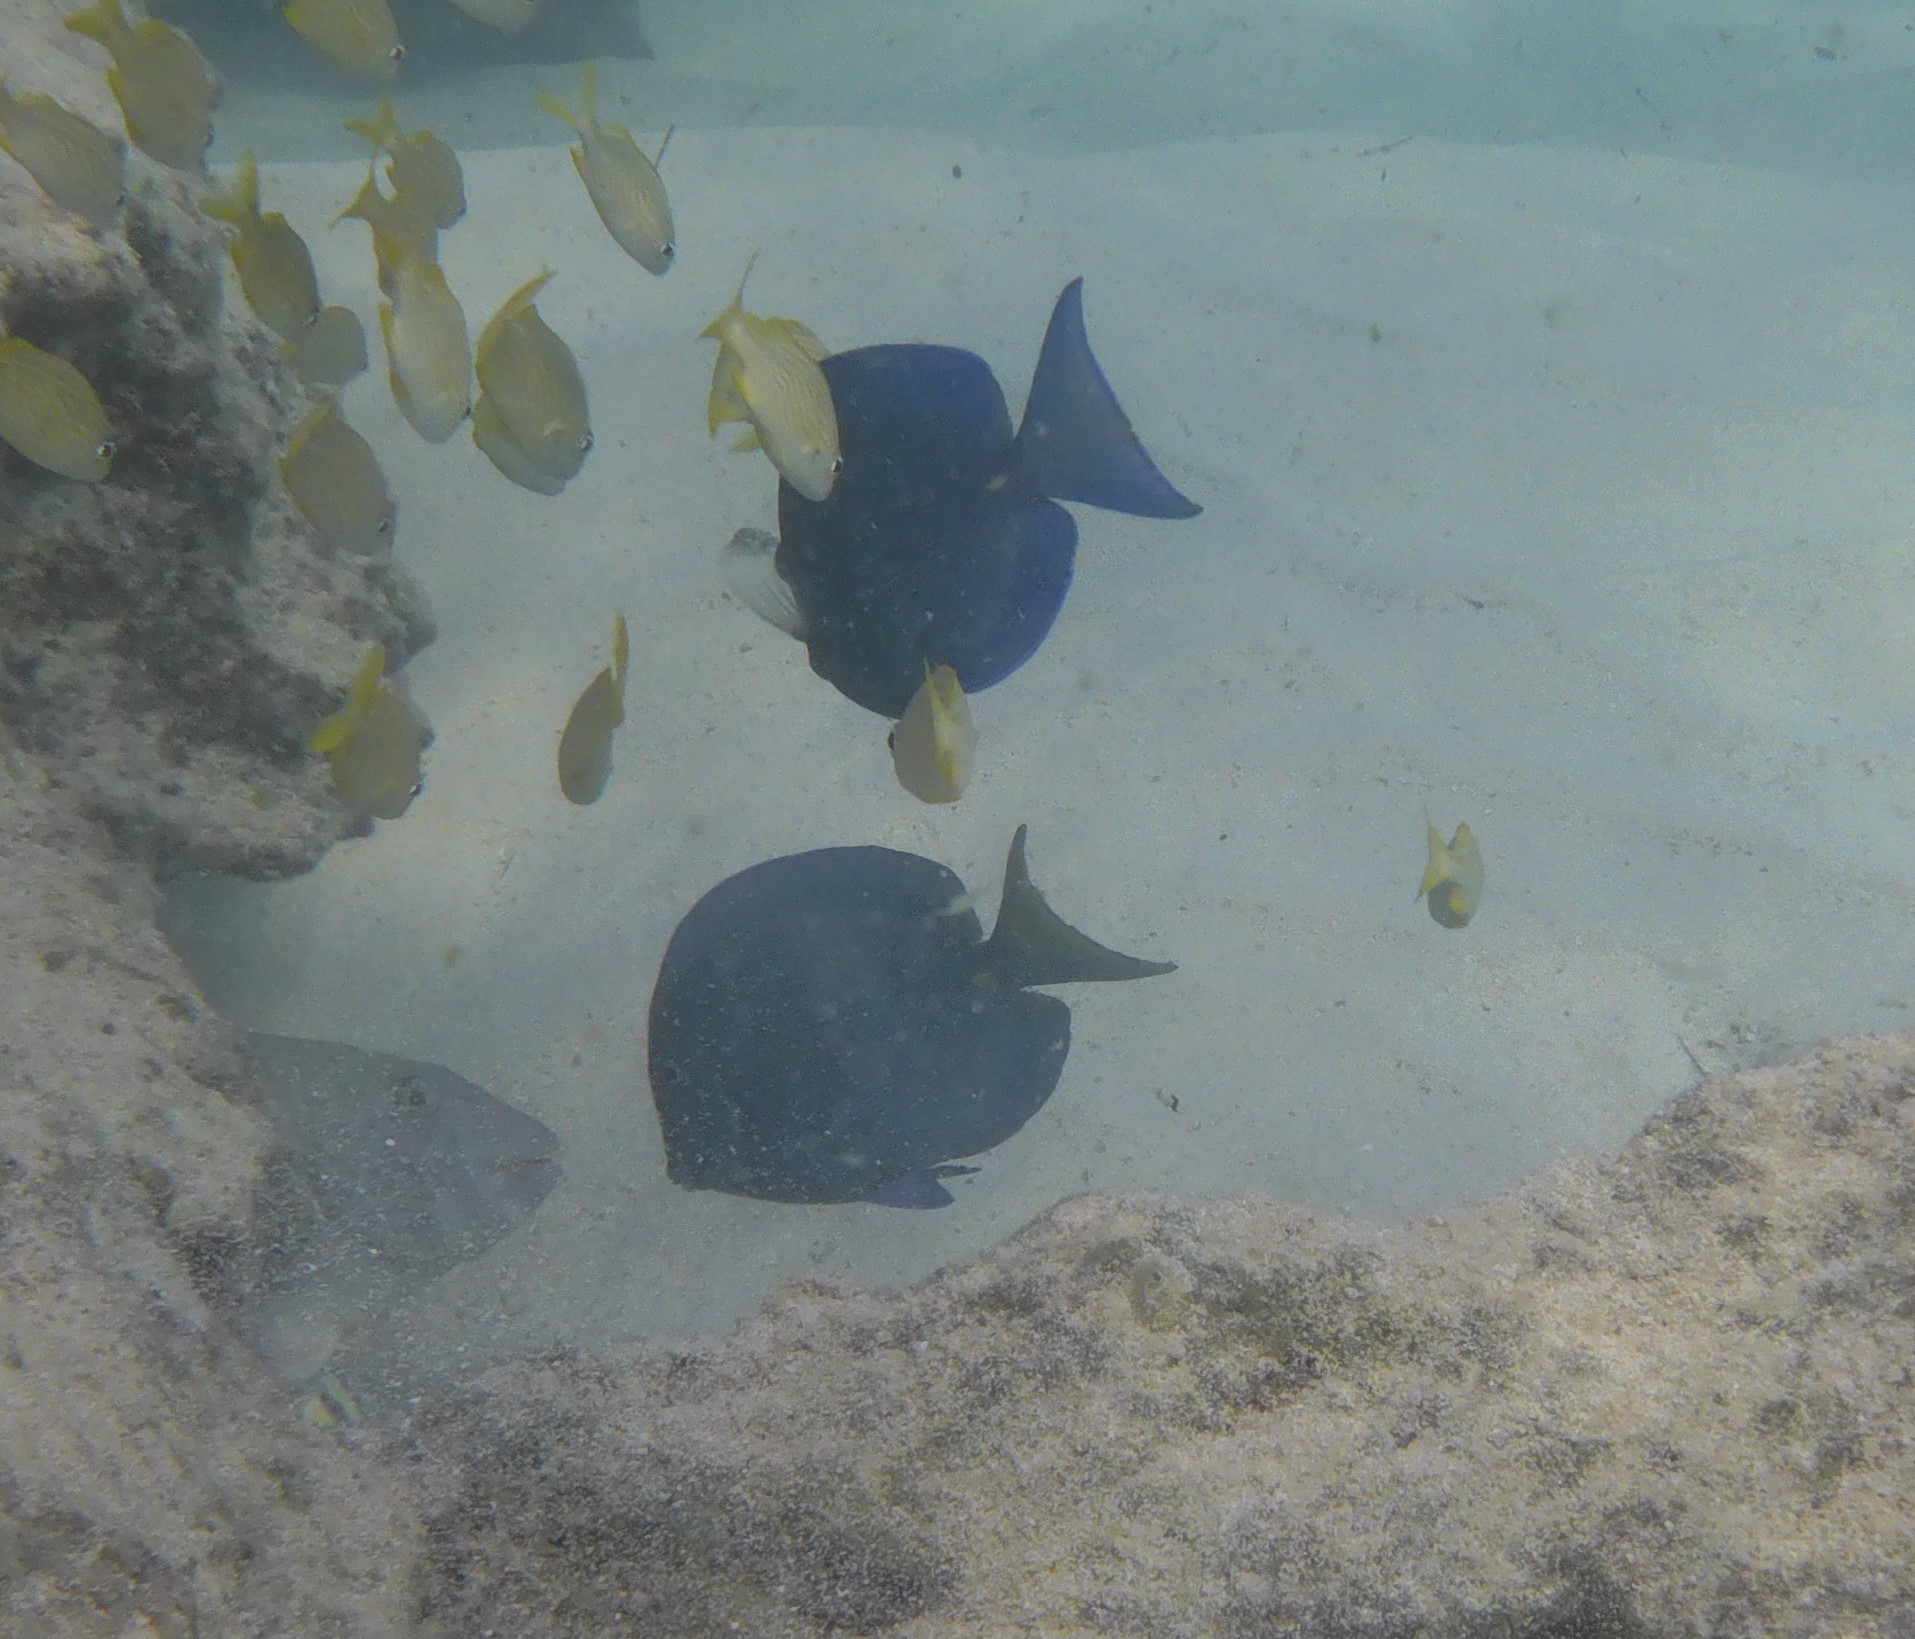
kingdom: Animalia
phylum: Chordata
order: Perciformes
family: Acanthuridae
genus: Acanthurus
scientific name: Acanthurus coeruleus
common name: Blue tang
